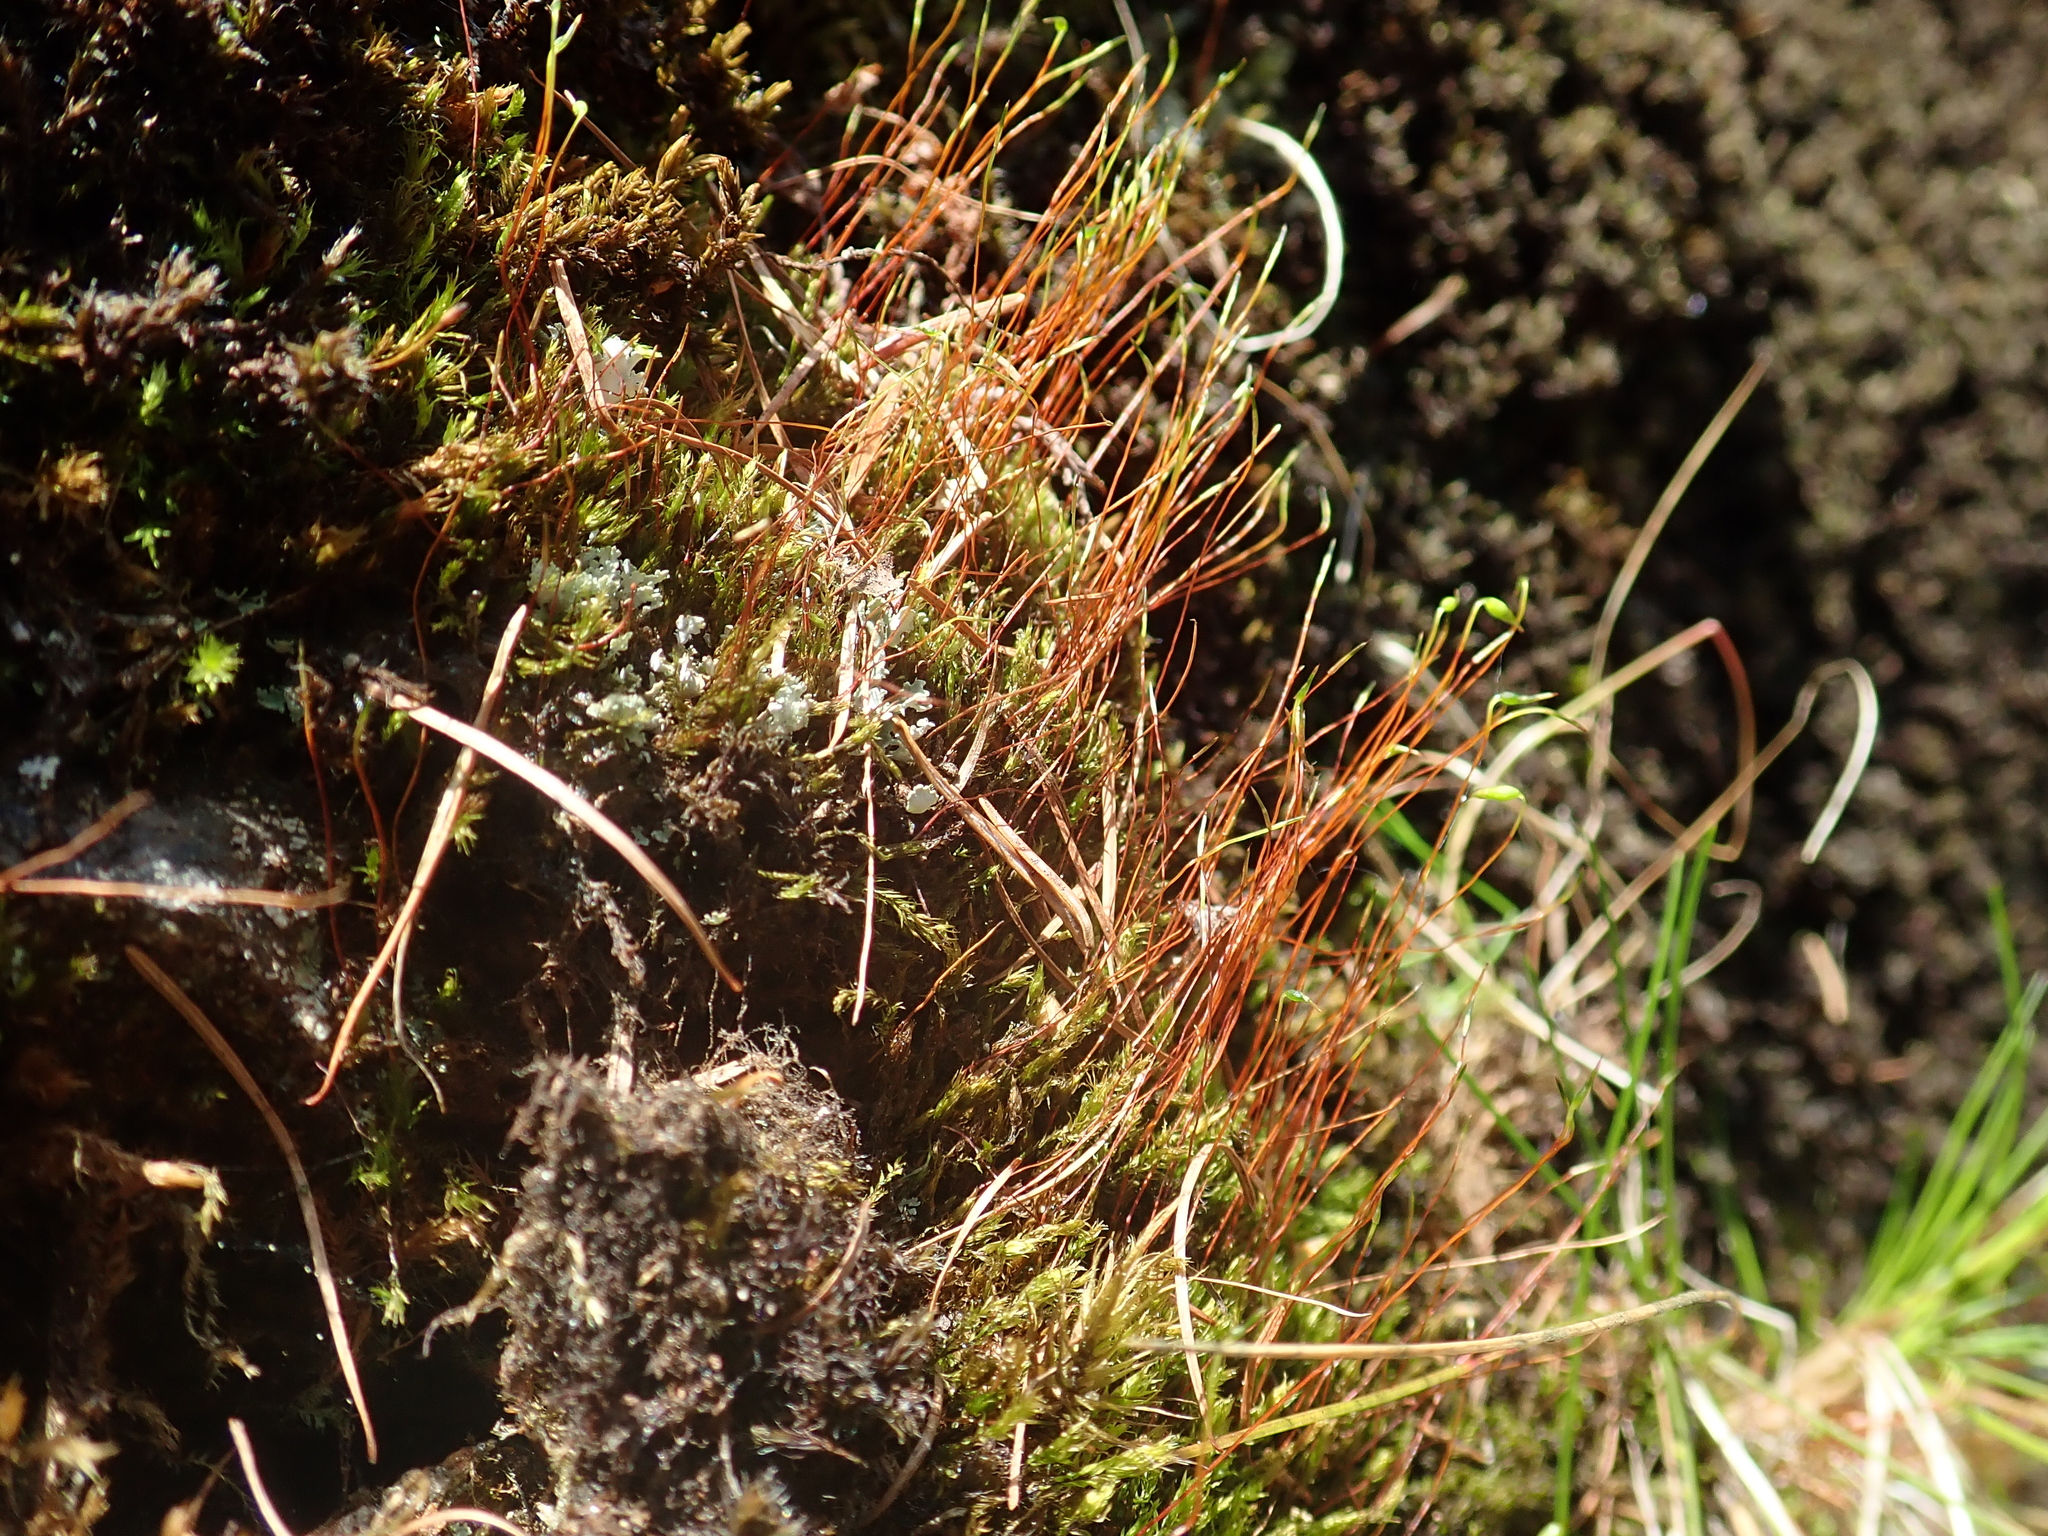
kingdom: Plantae
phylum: Bryophyta
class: Bryopsida
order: Bryales
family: Mniaceae
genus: Pohlia
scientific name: Pohlia nutans
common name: Nodding thread-moss
